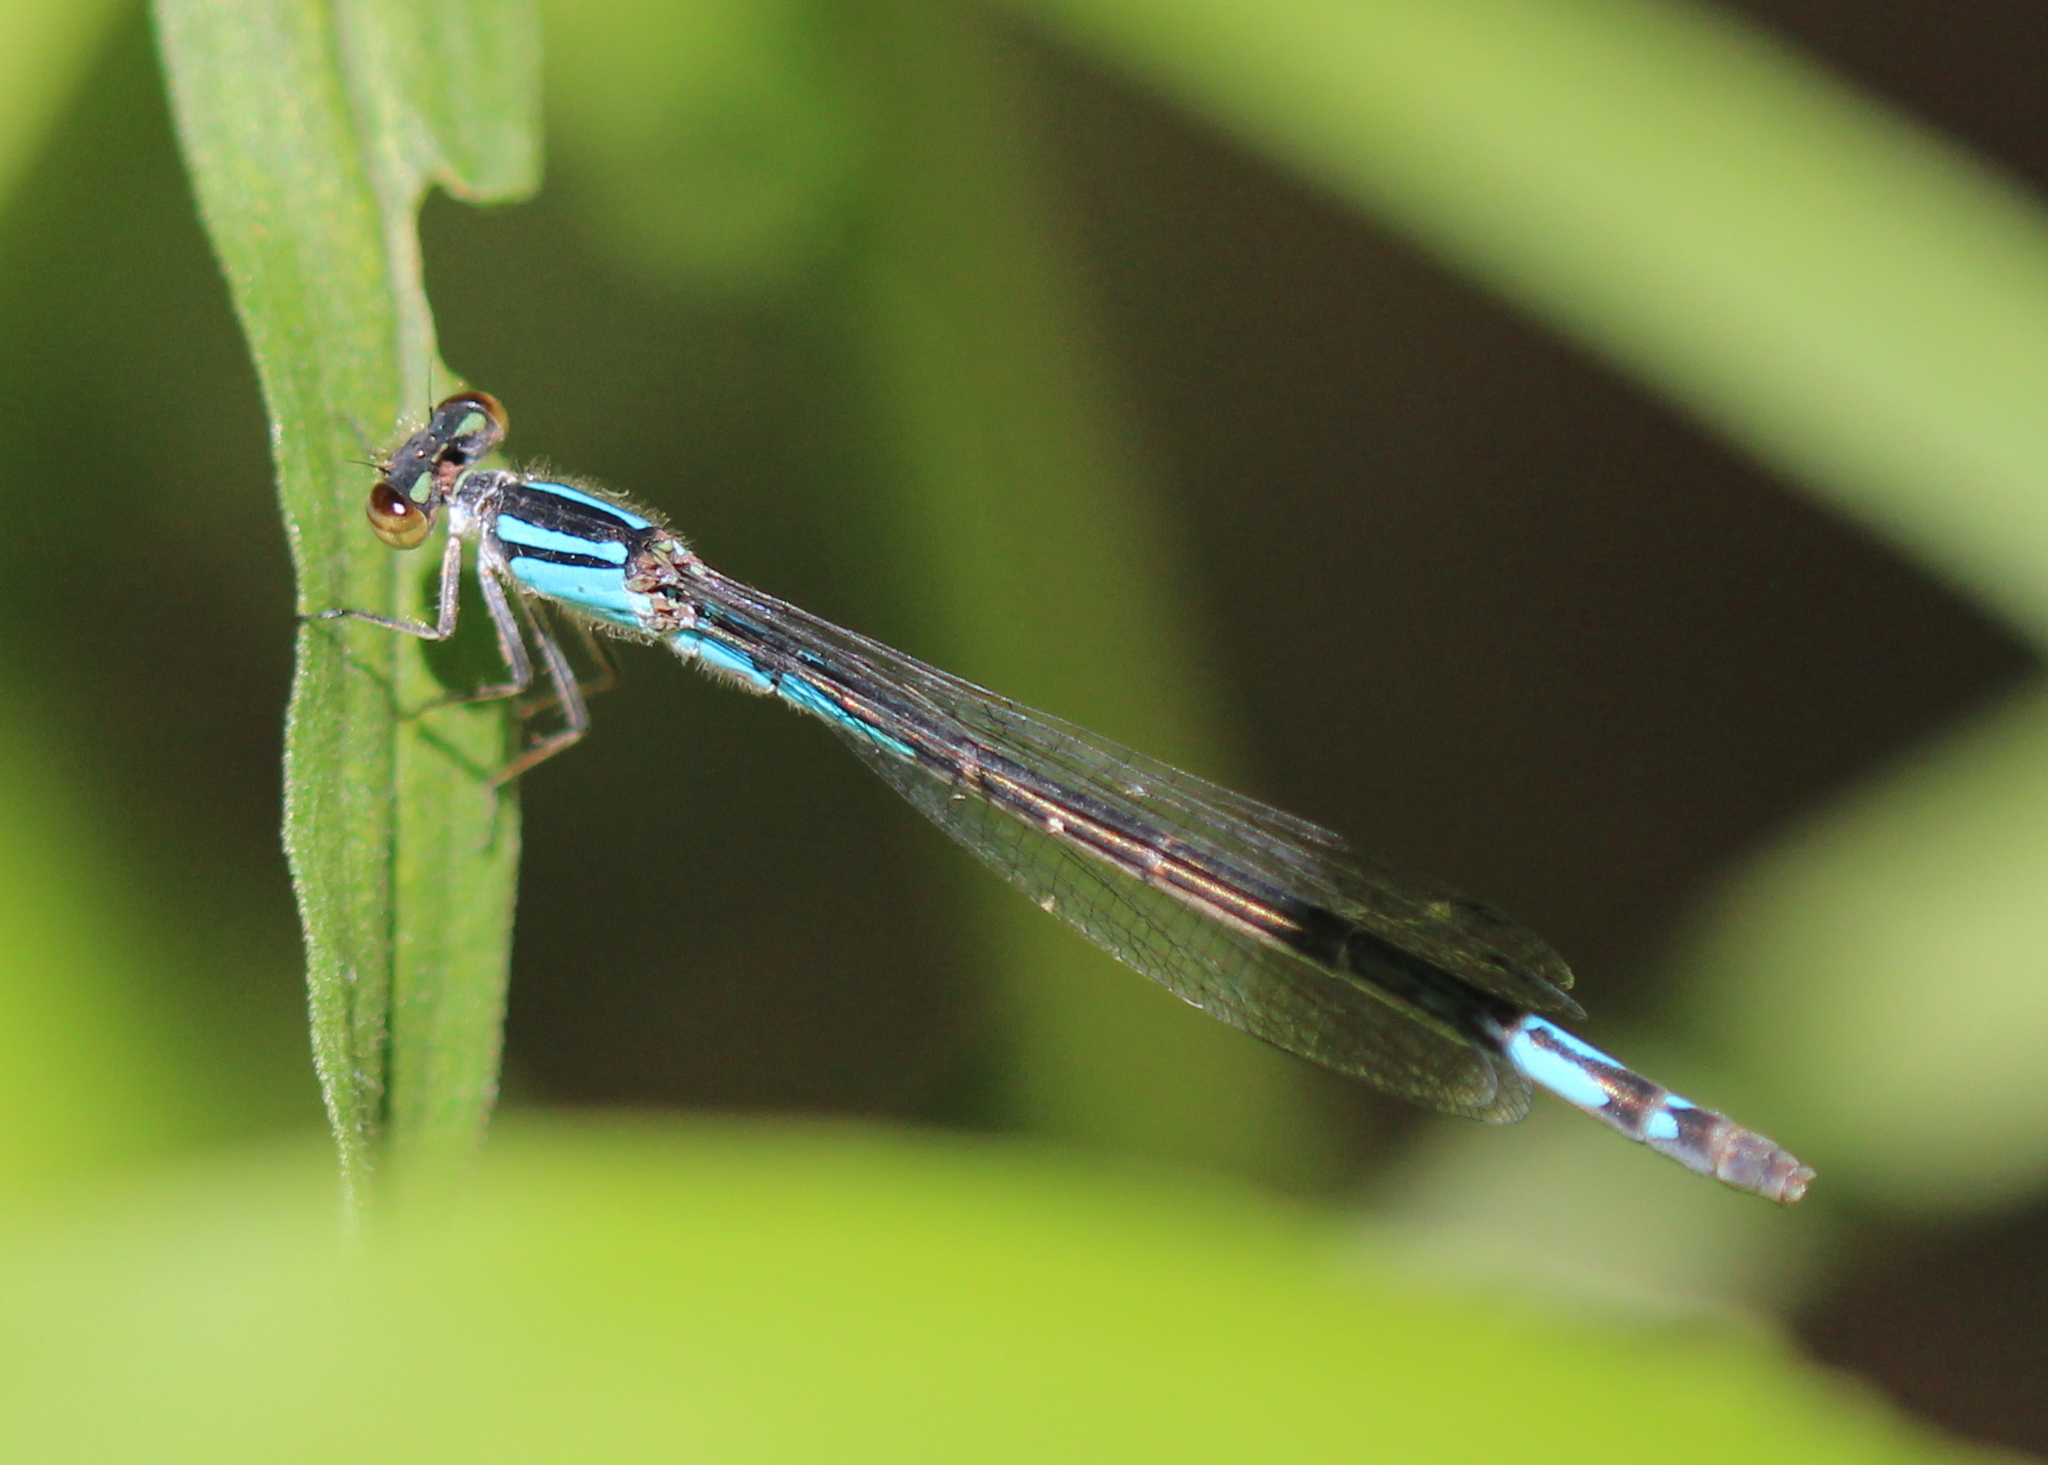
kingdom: Animalia
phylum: Arthropoda
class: Insecta
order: Odonata
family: Coenagrionidae
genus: Enallagma
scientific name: Enallagma aspersum
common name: Azure bluet
